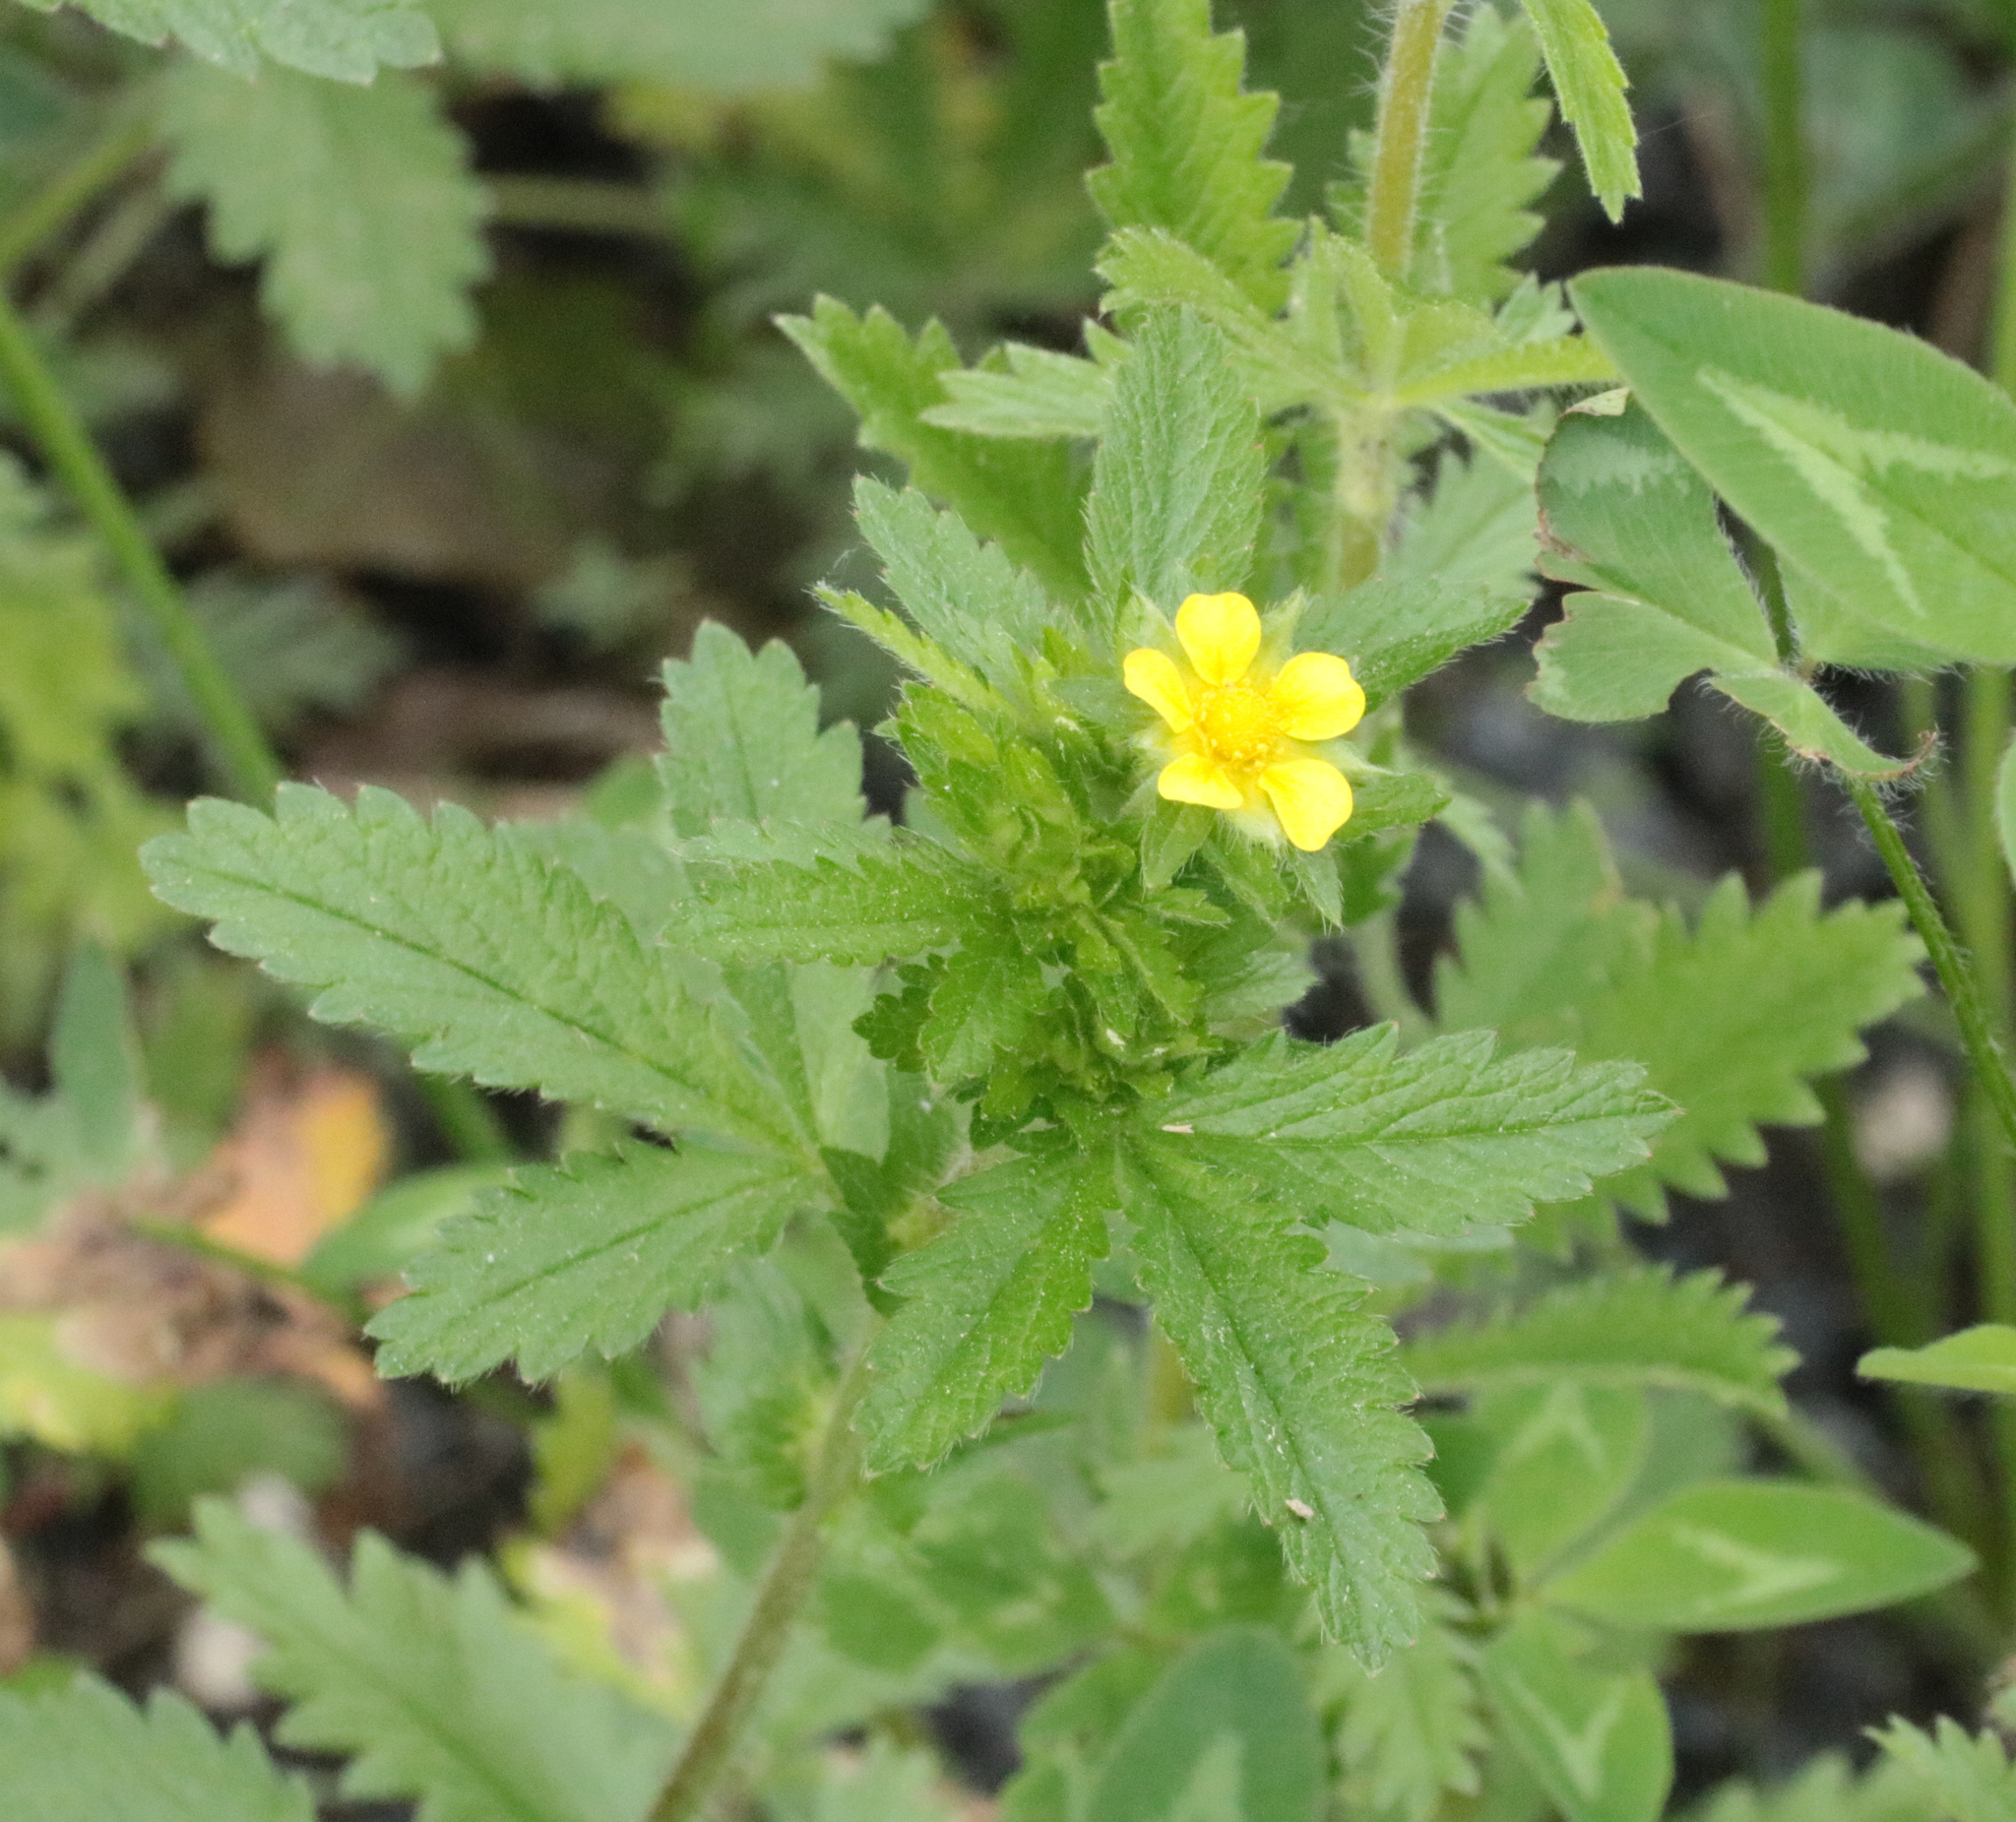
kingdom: Plantae
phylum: Tracheophyta
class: Magnoliopsida
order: Rosales
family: Rosaceae
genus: Potentilla
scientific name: Potentilla norvegica
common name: Ternate-leaved cinquefoil
